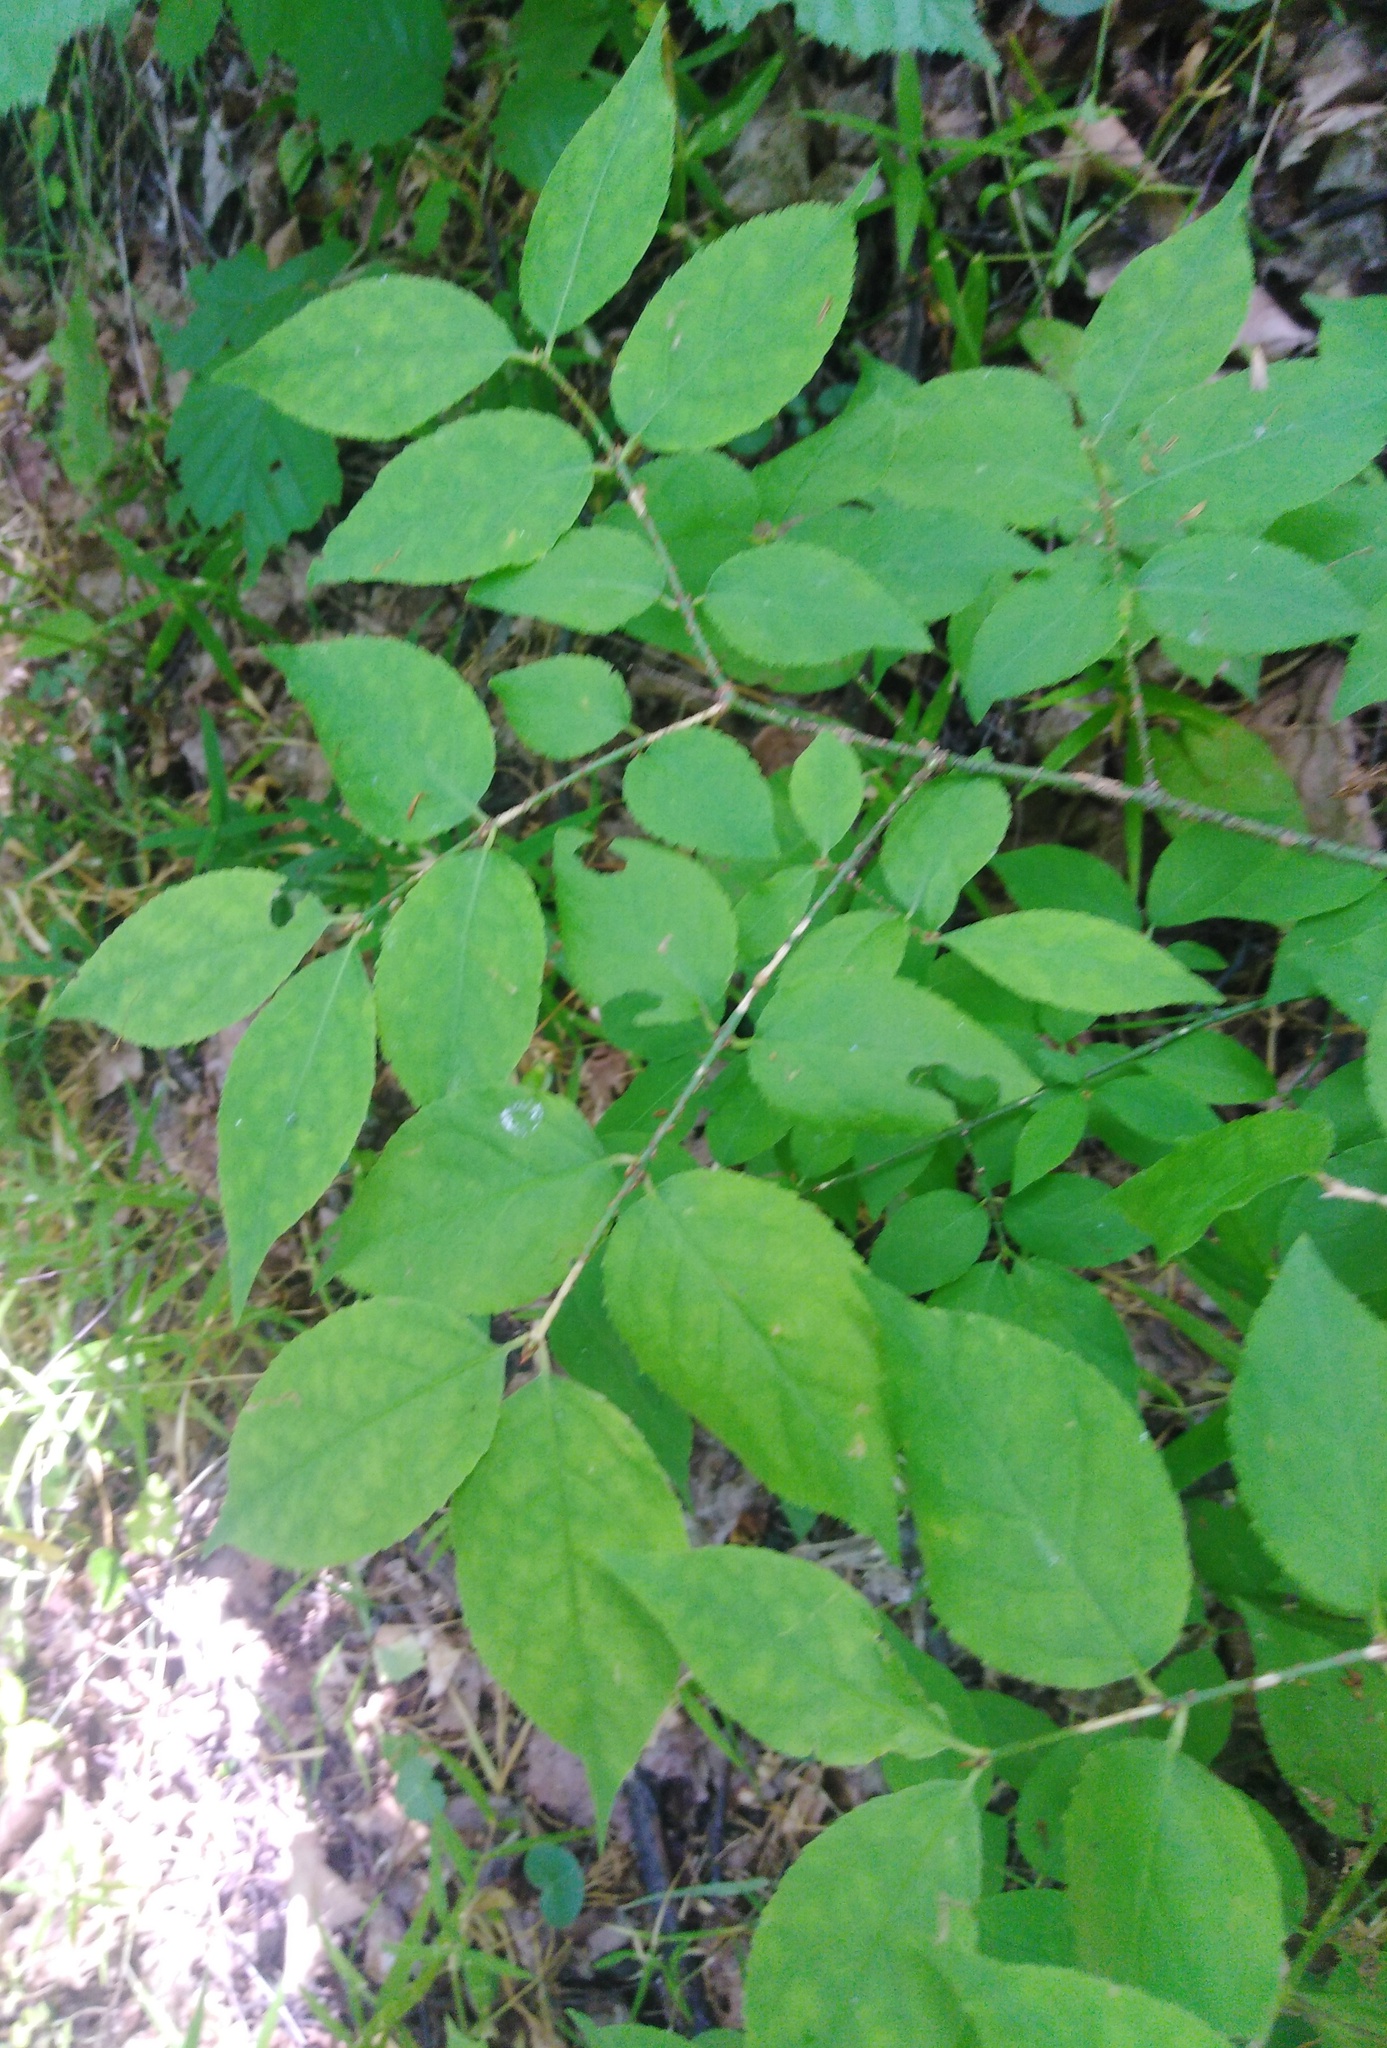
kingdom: Plantae
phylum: Tracheophyta
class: Magnoliopsida
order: Celastrales
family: Celastraceae
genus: Euonymus
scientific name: Euonymus verrucosus
